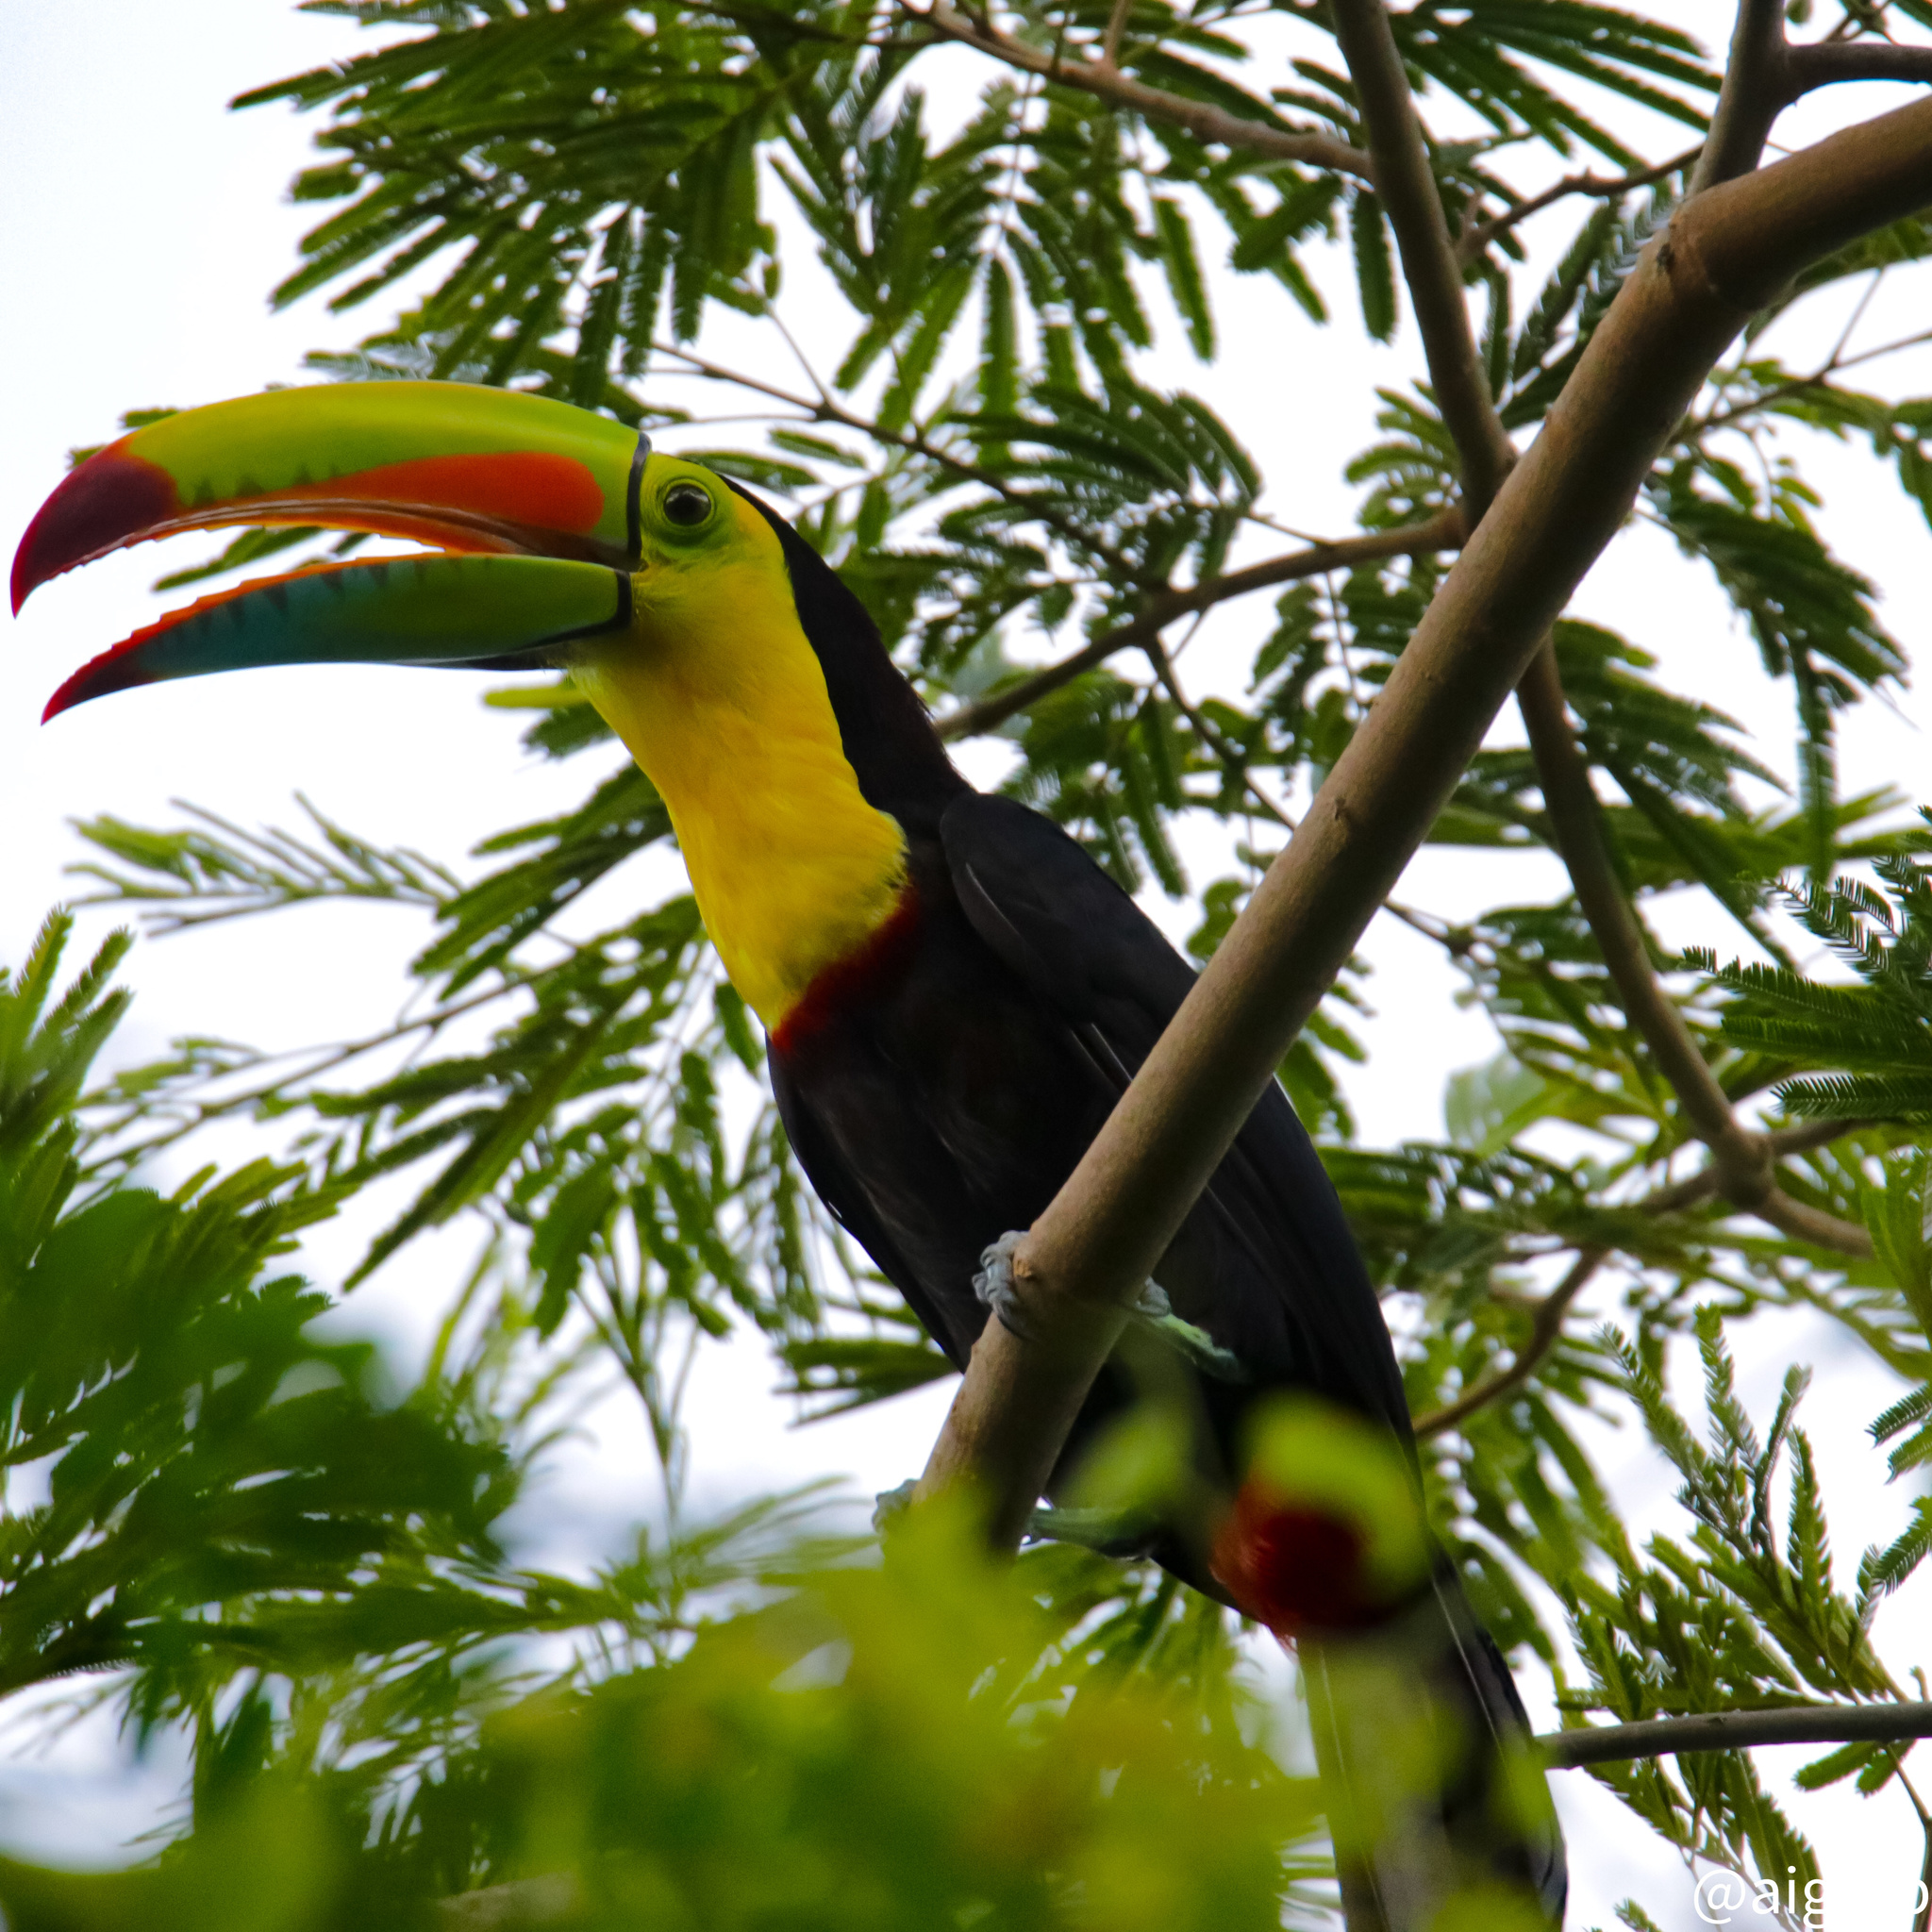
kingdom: Animalia
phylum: Chordata
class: Aves
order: Piciformes
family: Ramphastidae
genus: Ramphastos
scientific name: Ramphastos sulfuratus
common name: Keel-billed toucan
